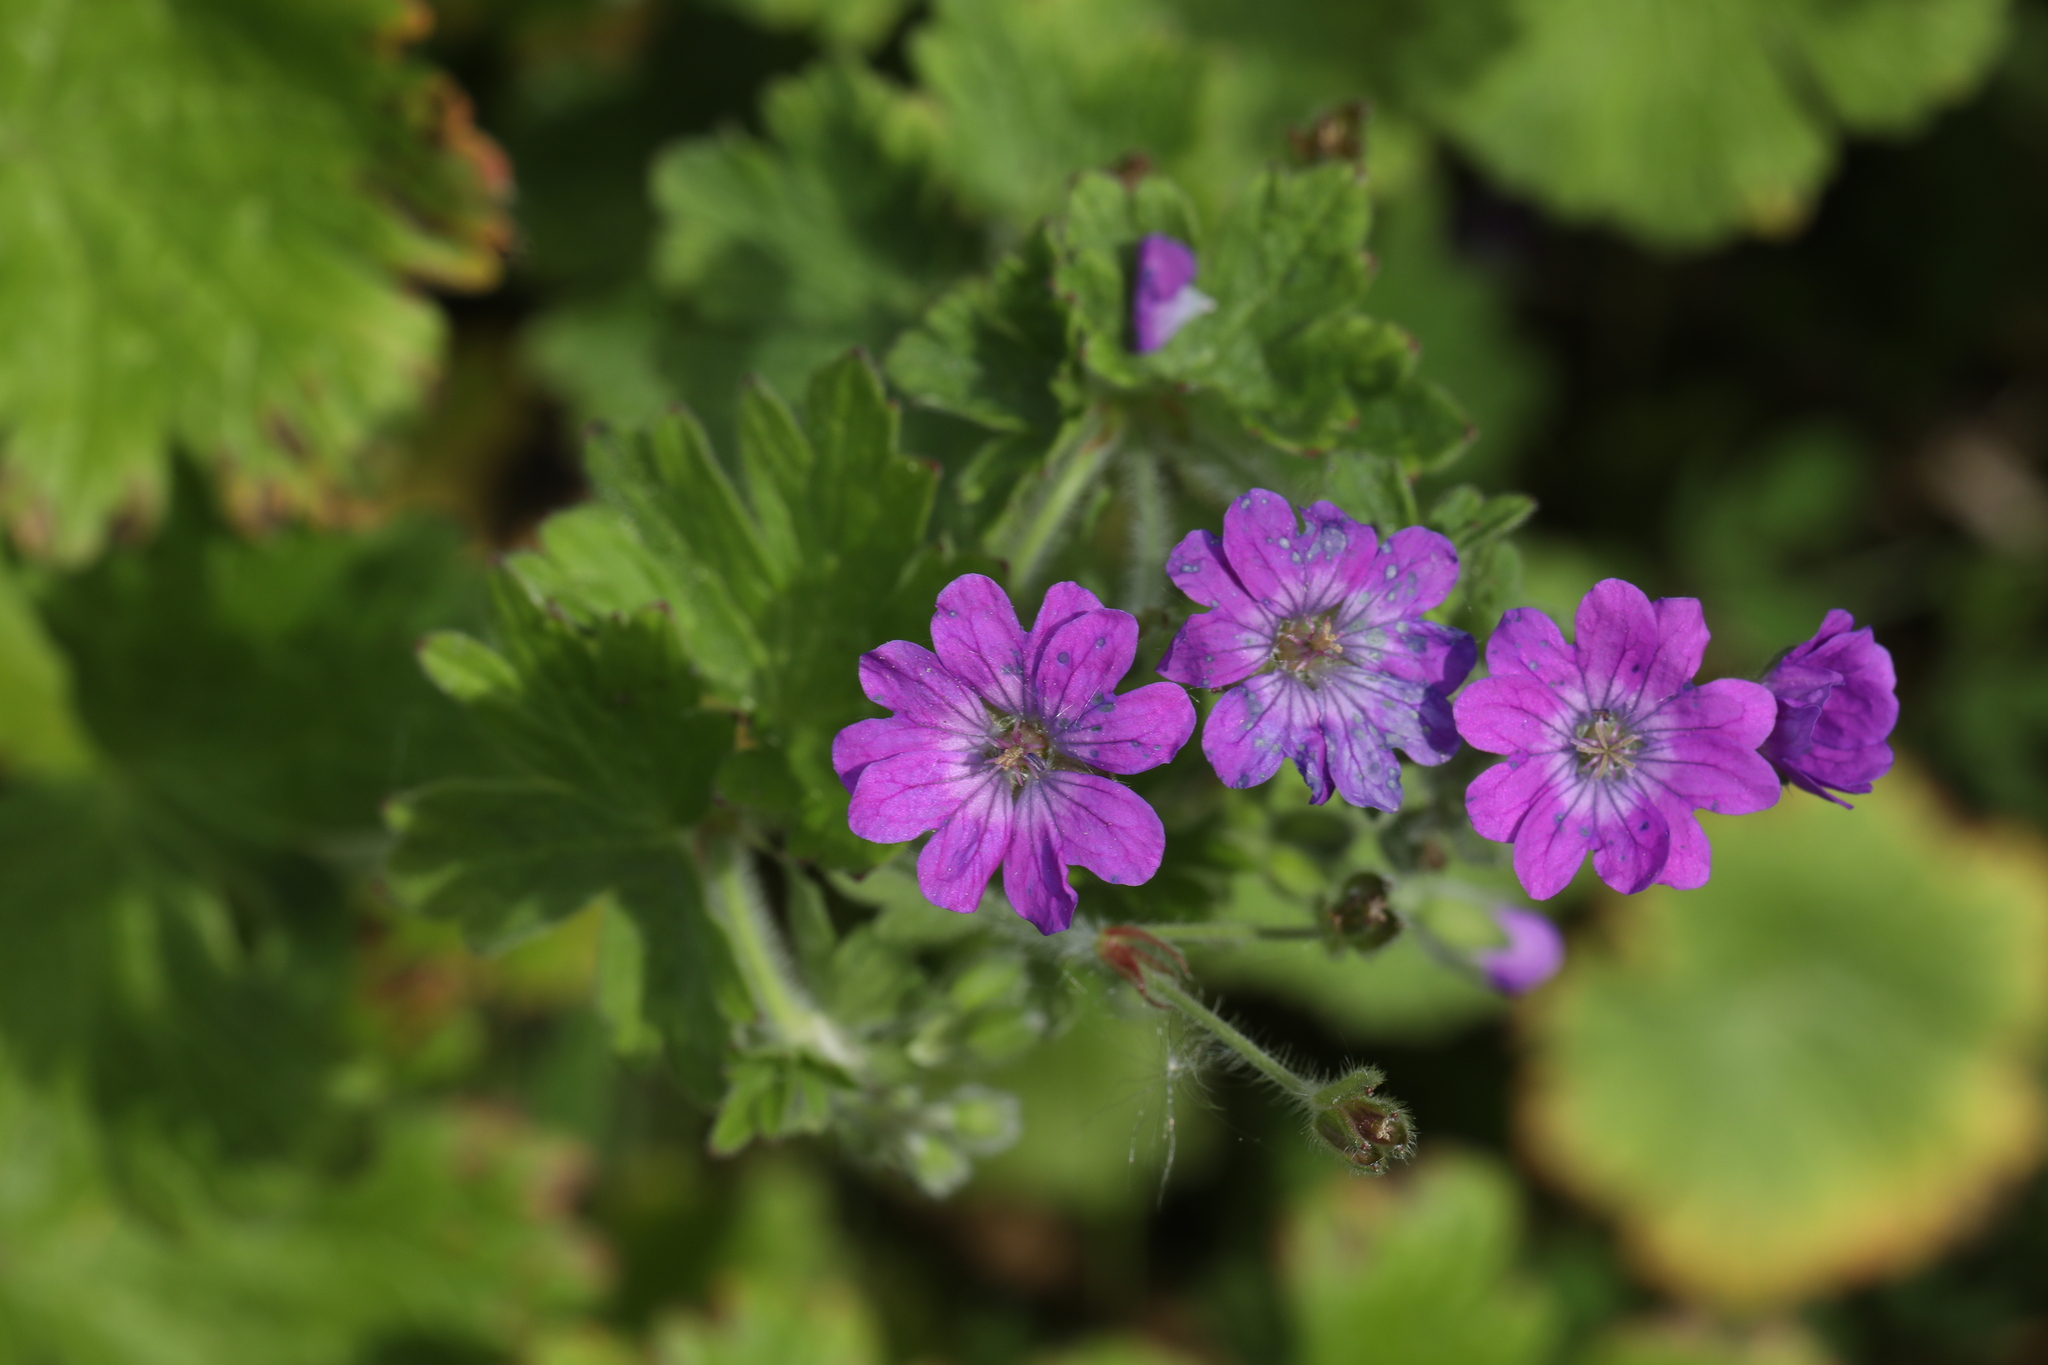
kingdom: Plantae
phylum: Tracheophyta
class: Magnoliopsida
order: Geraniales
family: Geraniaceae
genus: Geranium
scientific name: Geranium pyrenaicum
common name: Hedgerow crane's-bill
